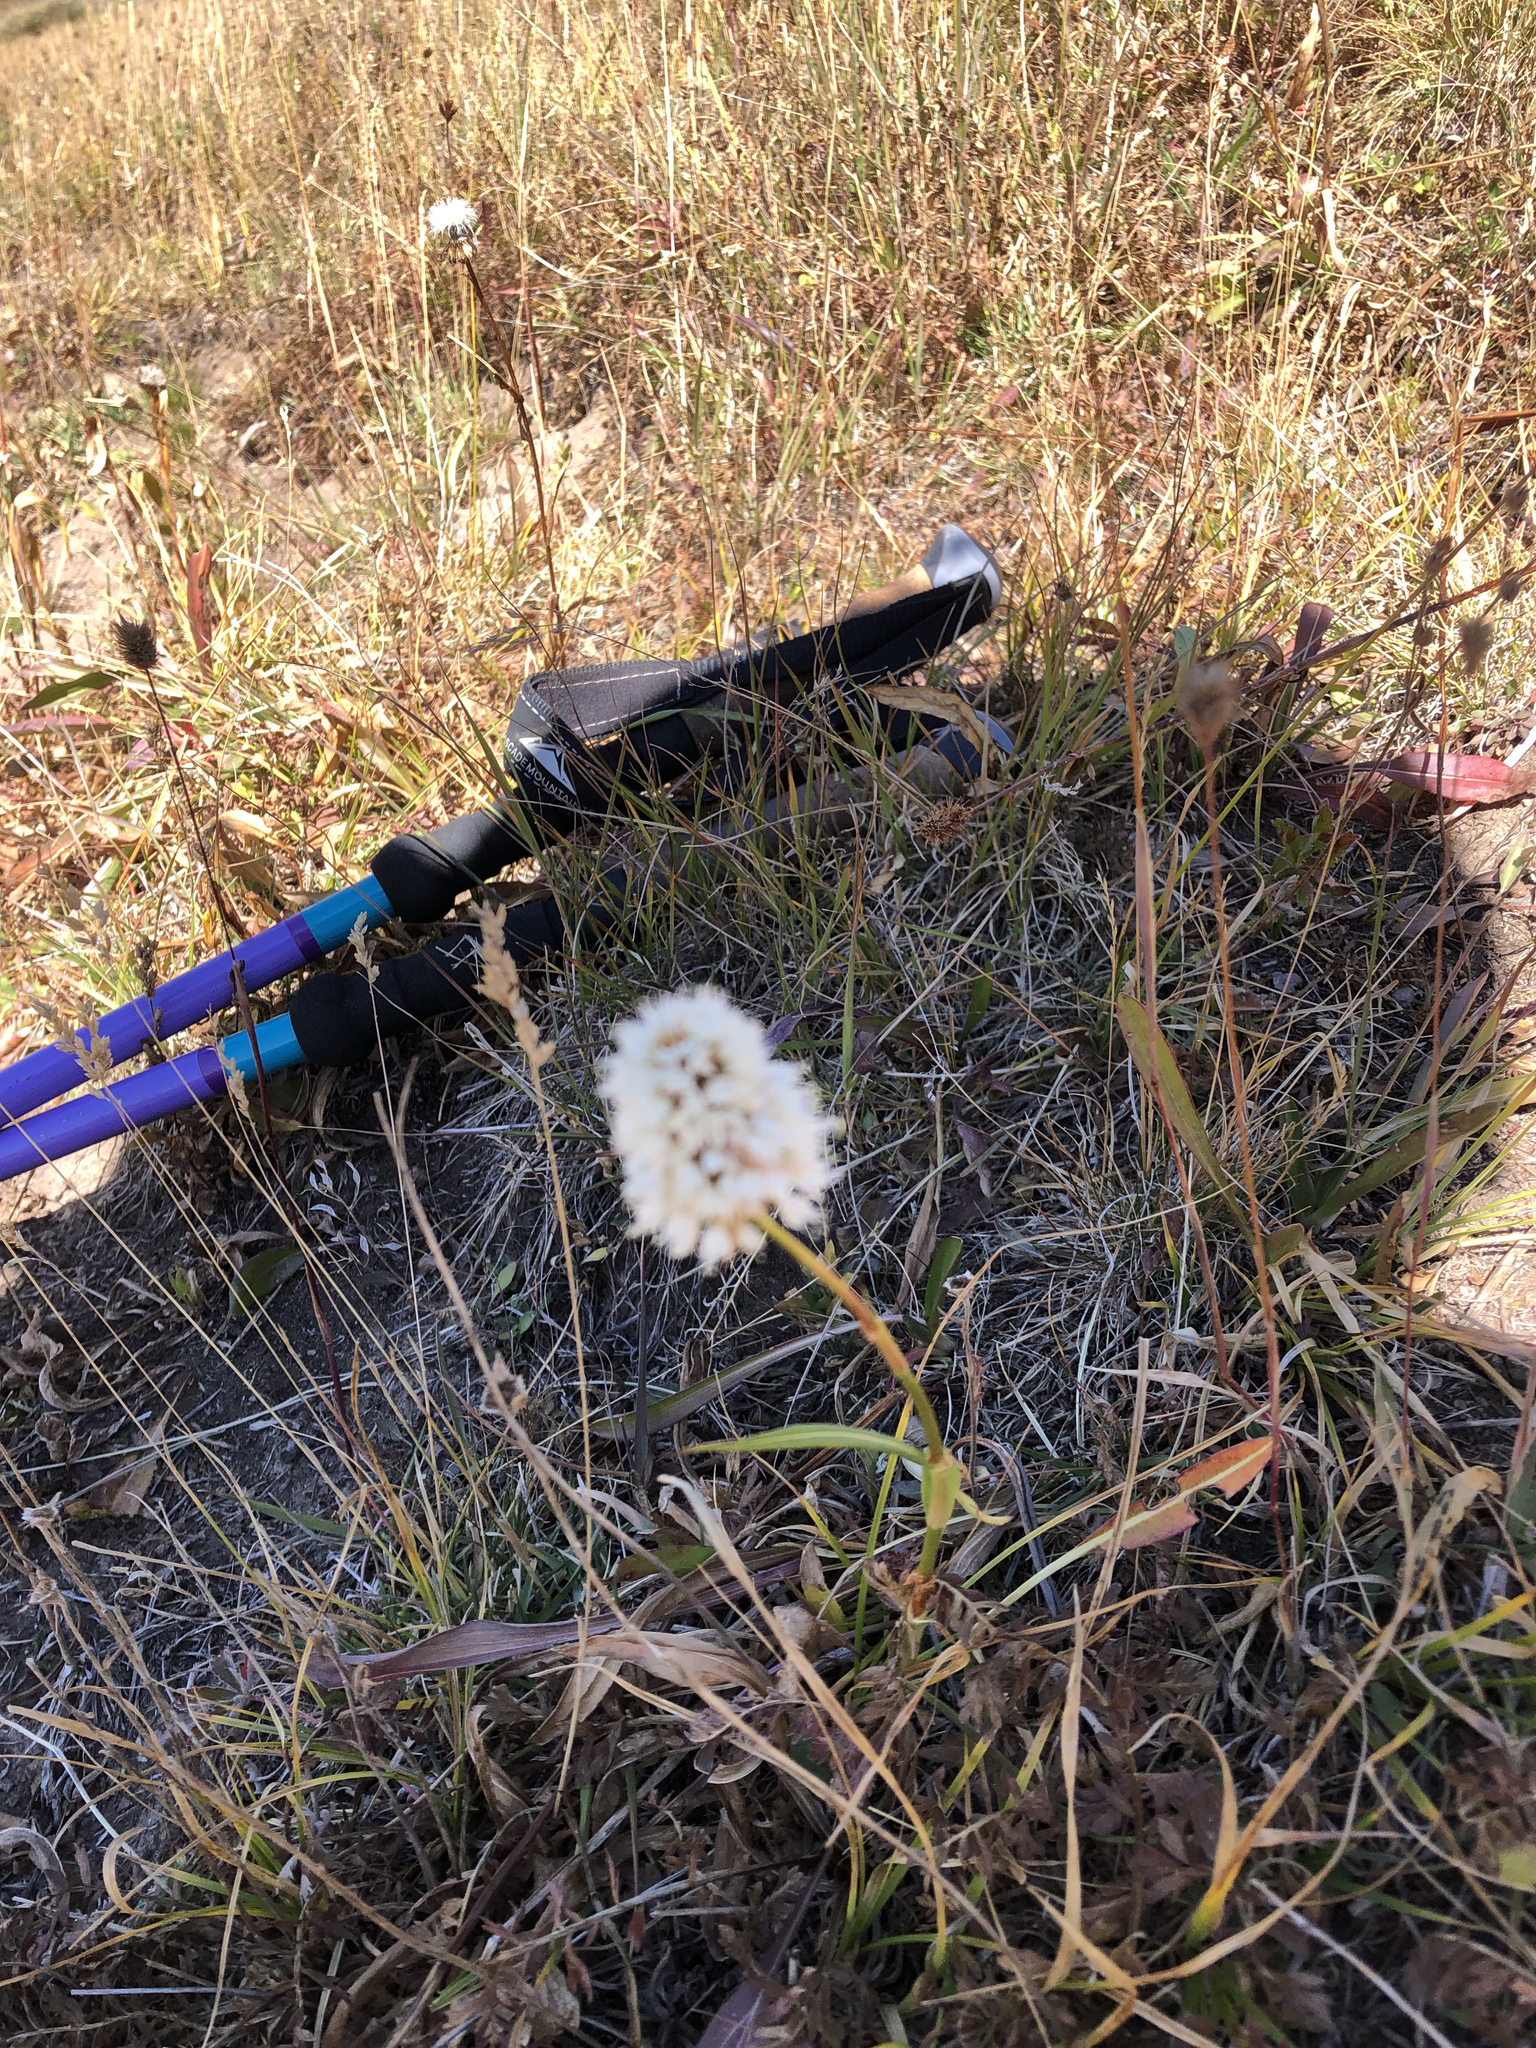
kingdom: Plantae
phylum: Tracheophyta
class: Magnoliopsida
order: Caryophyllales
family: Polygonaceae
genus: Bistorta
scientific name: Bistorta bistortoides
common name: American bistort
